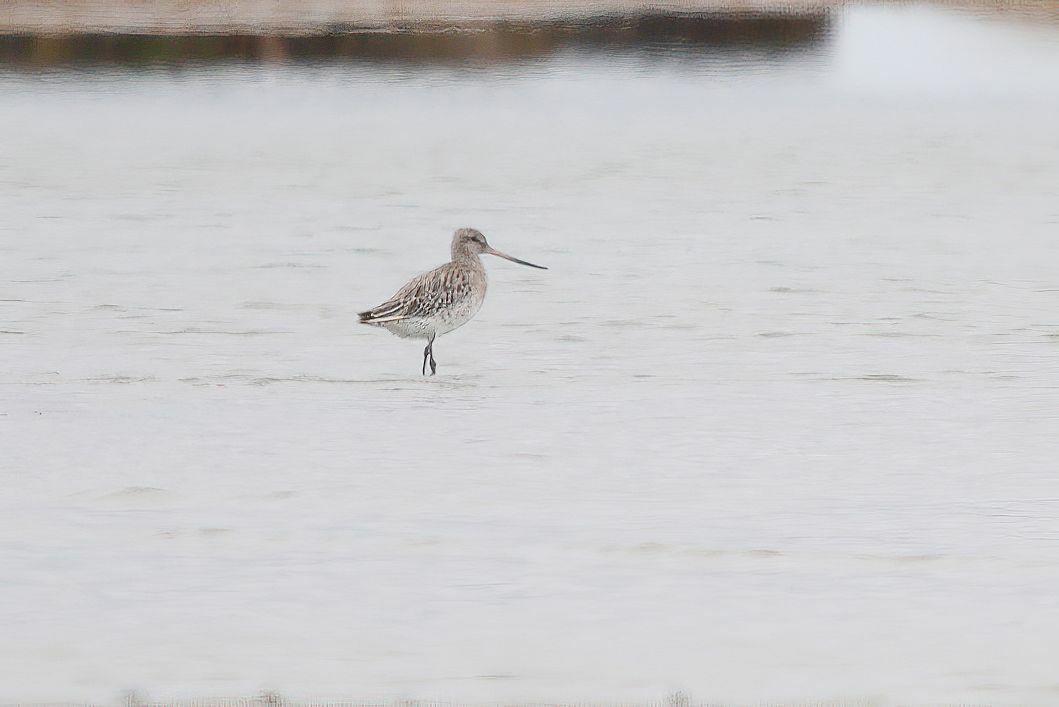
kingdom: Animalia
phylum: Chordata
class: Aves
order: Charadriiformes
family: Scolopacidae
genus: Limosa
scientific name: Limosa lapponica
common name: Bar-tailed godwit
